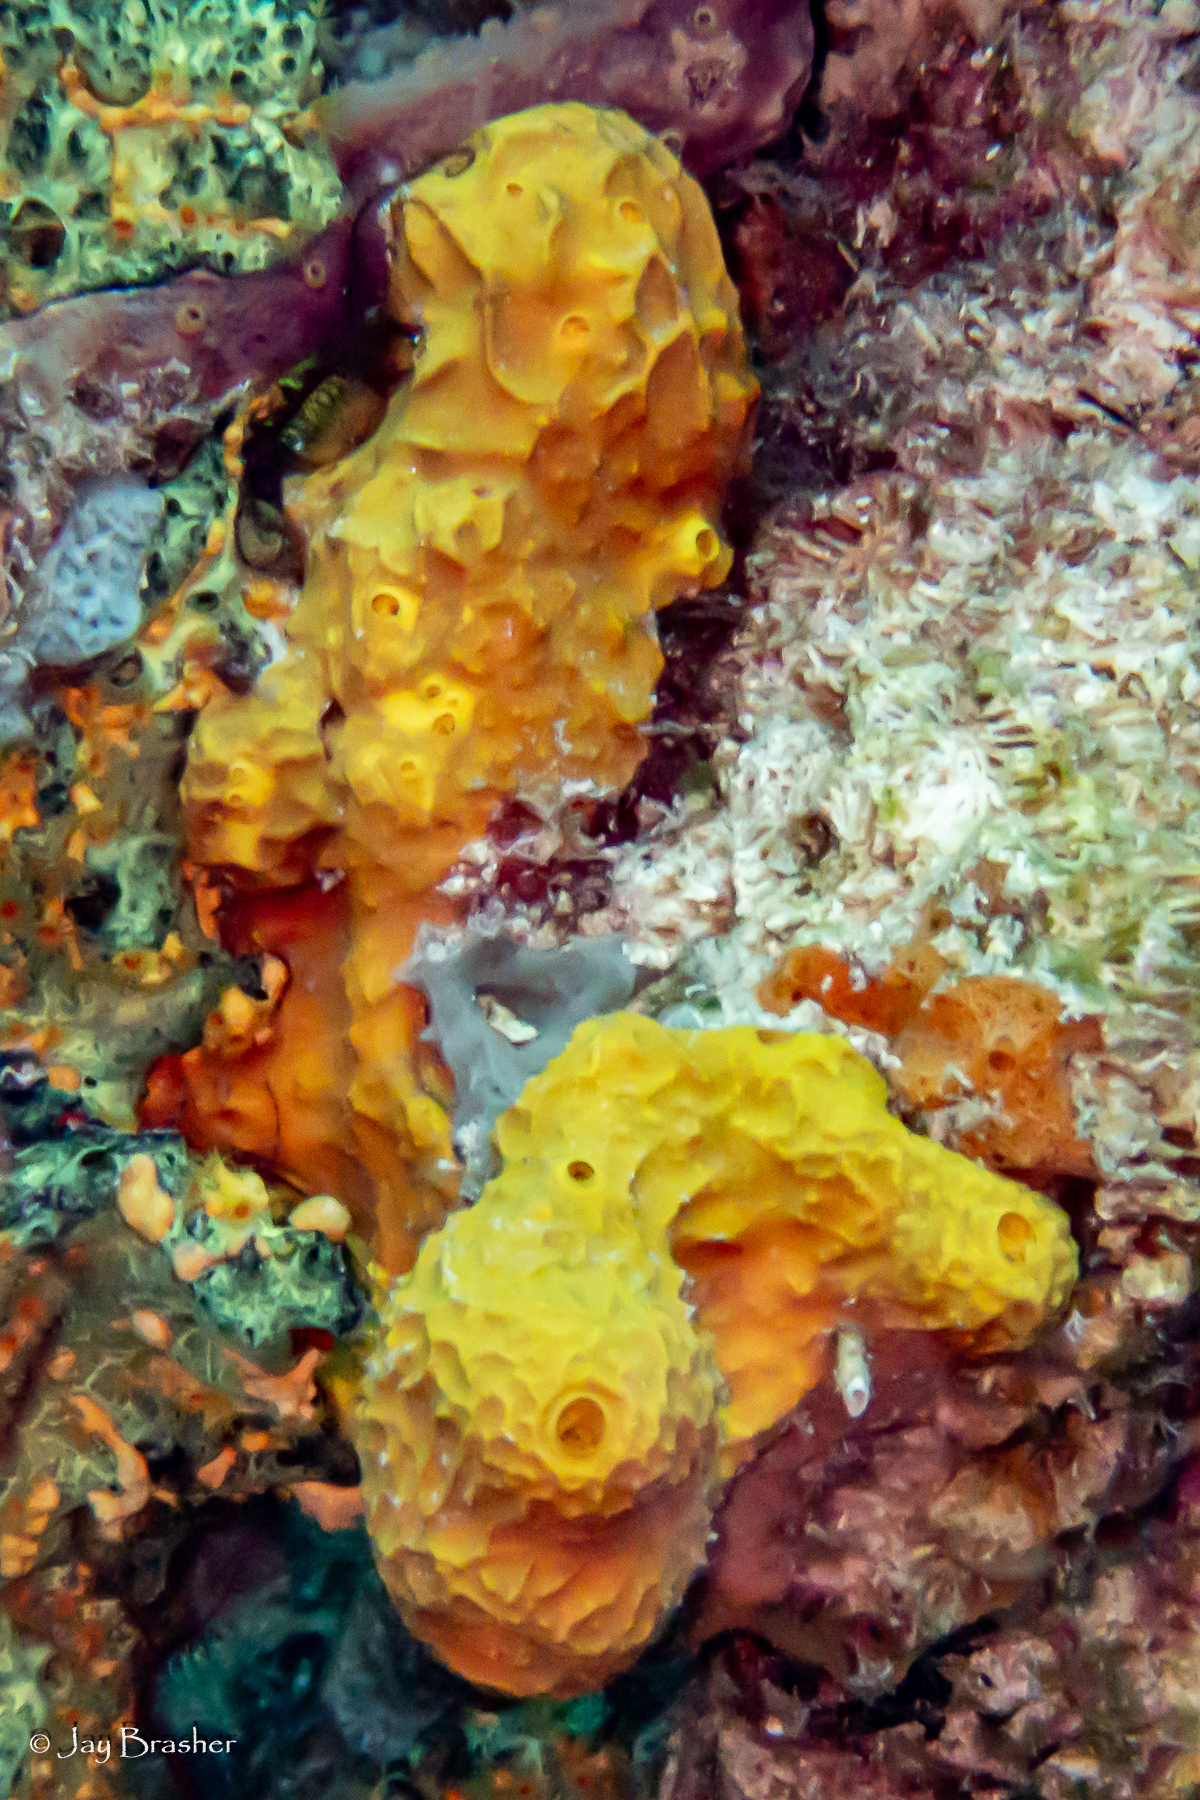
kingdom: Animalia
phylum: Porifera
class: Demospongiae
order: Verongiida
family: Aplysinidae
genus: Verongula
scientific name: Verongula rigida
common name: Pitted sponge
